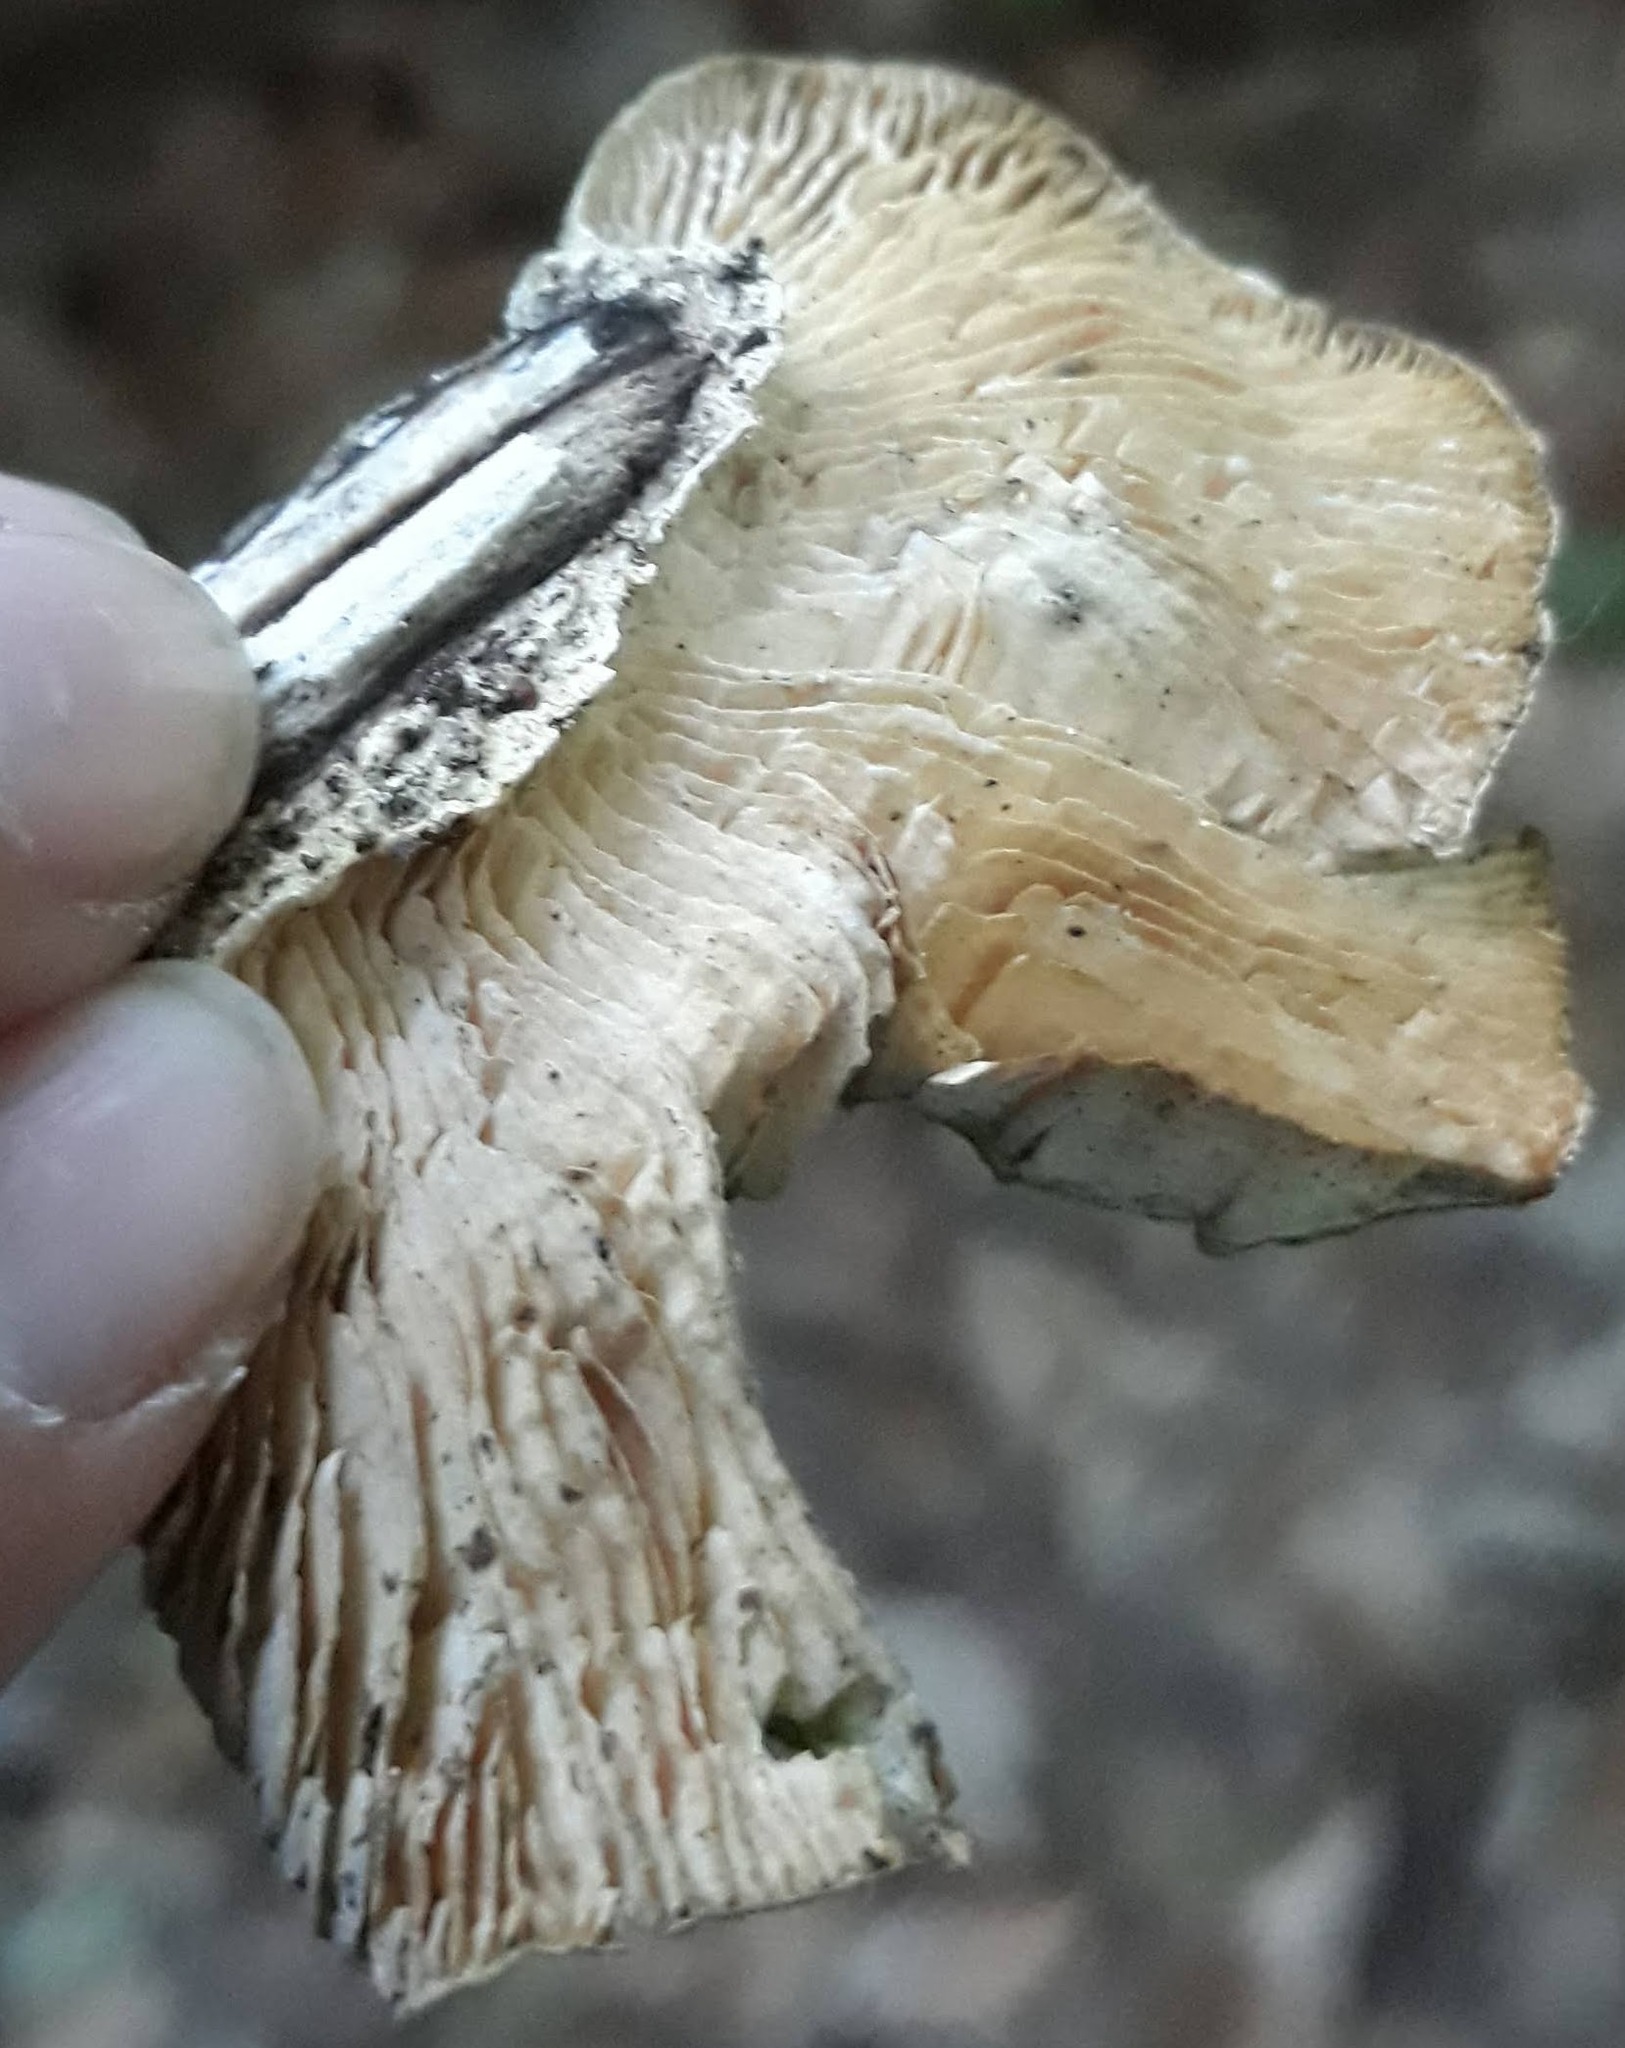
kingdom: Fungi
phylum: Basidiomycota
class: Agaricomycetes
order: Polyporales
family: Polyporaceae
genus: Lenzites
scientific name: Lenzites betulinus
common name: Birch mazegill
